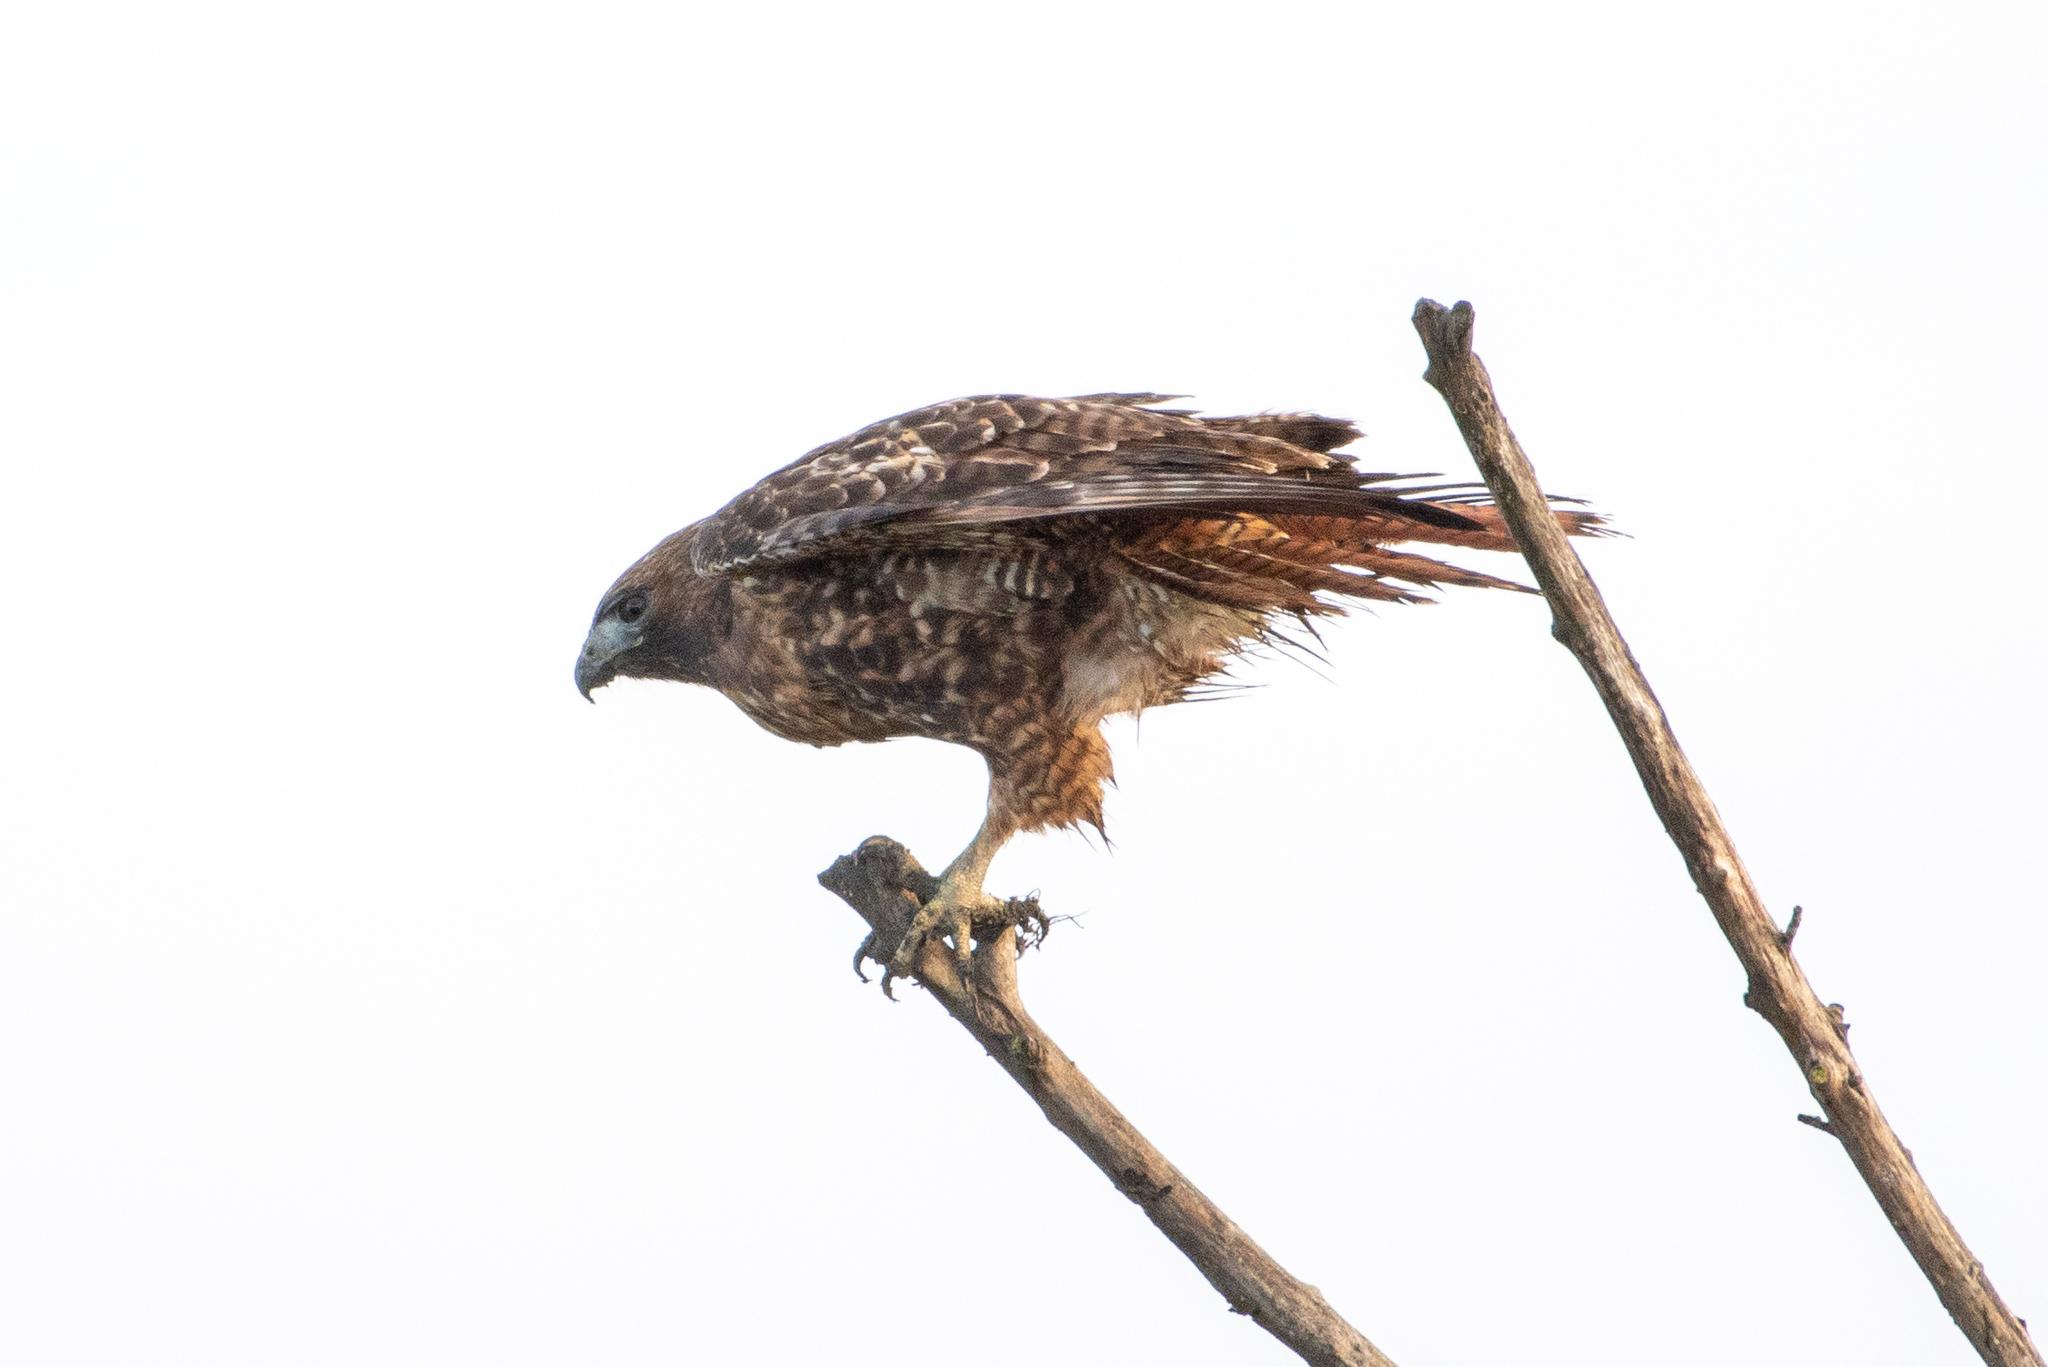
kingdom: Animalia
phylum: Chordata
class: Aves
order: Accipitriformes
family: Accipitridae
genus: Buteo
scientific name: Buteo jamaicensis
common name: Red-tailed hawk
